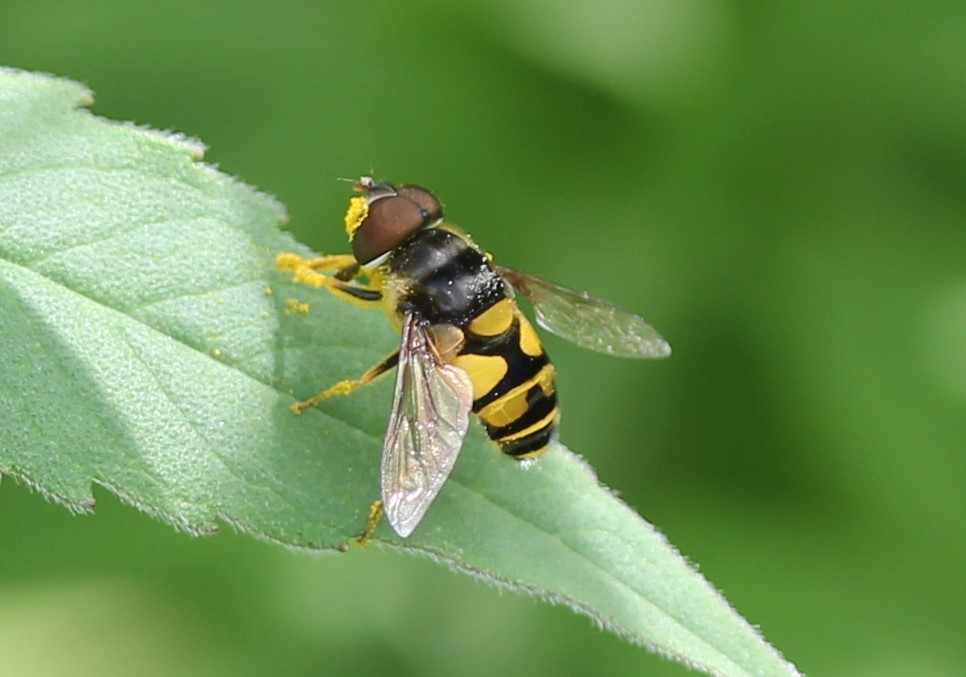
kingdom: Animalia
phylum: Arthropoda
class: Insecta
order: Diptera
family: Syrphidae
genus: Eristalis
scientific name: Eristalis transversa
